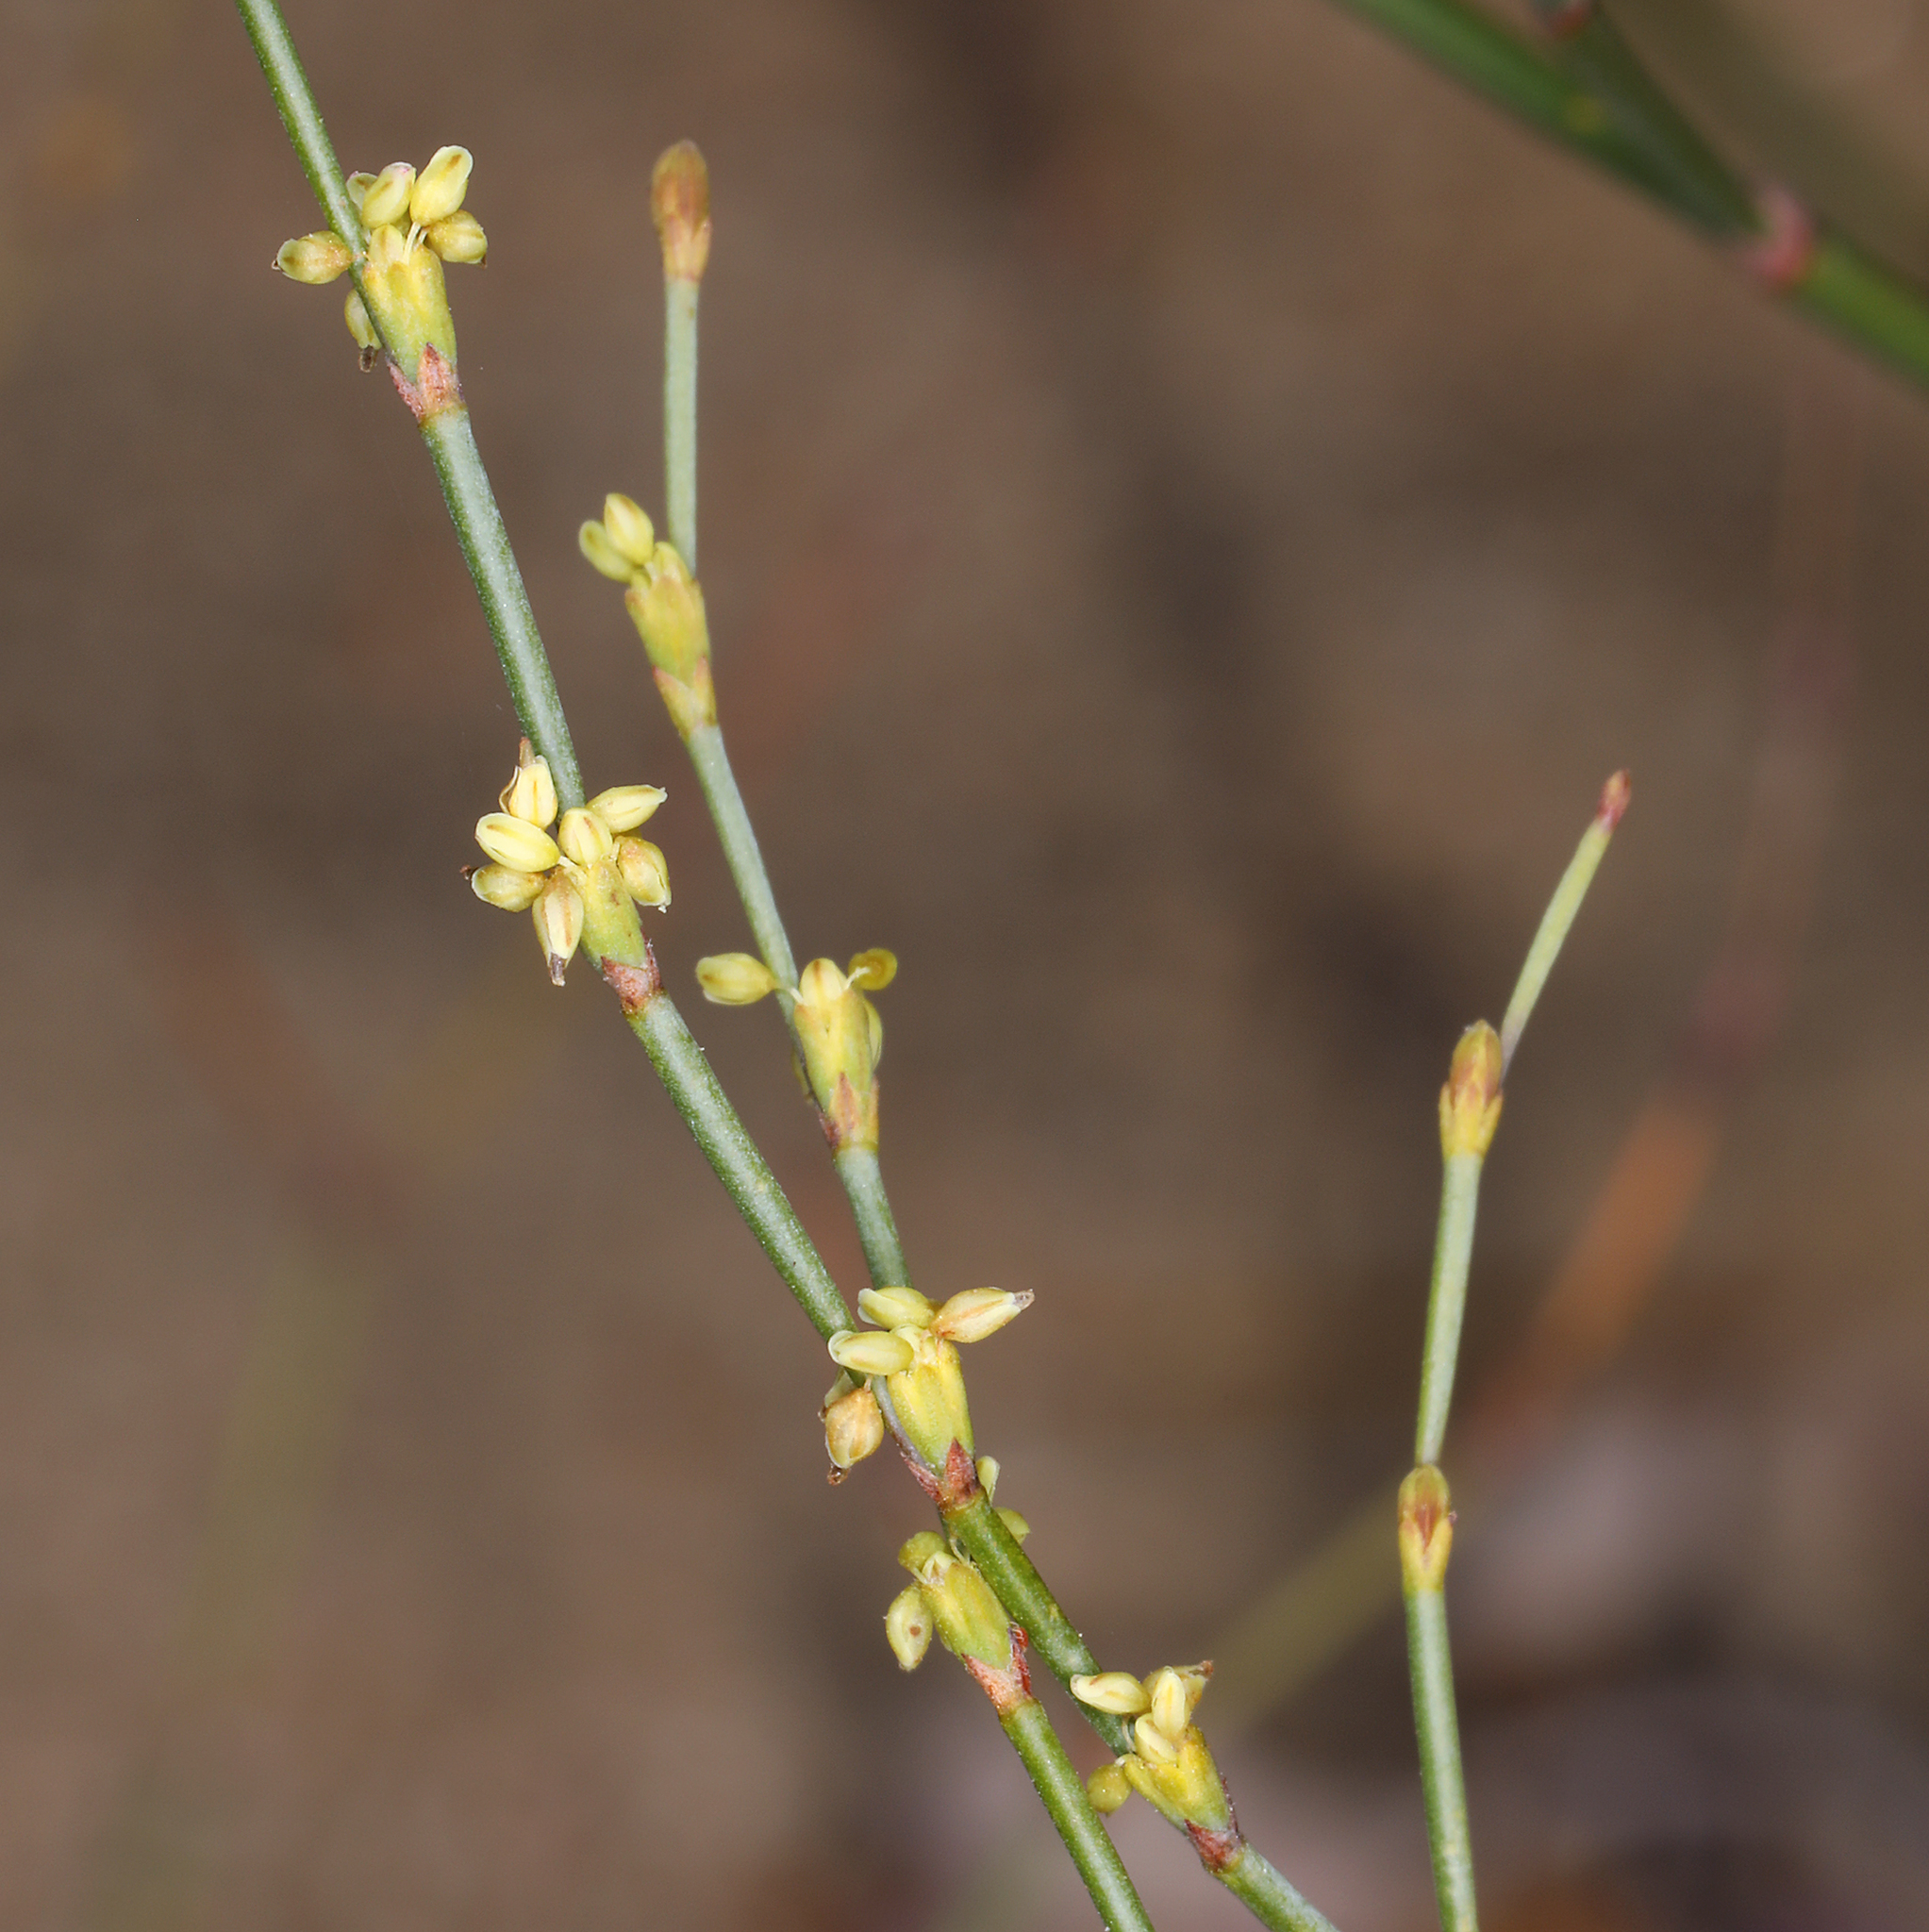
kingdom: Plantae
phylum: Tracheophyta
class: Magnoliopsida
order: Caryophyllales
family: Polygonaceae
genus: Eriogonum
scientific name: Eriogonum brachyanthum
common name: Short-flower wild buckwheat
